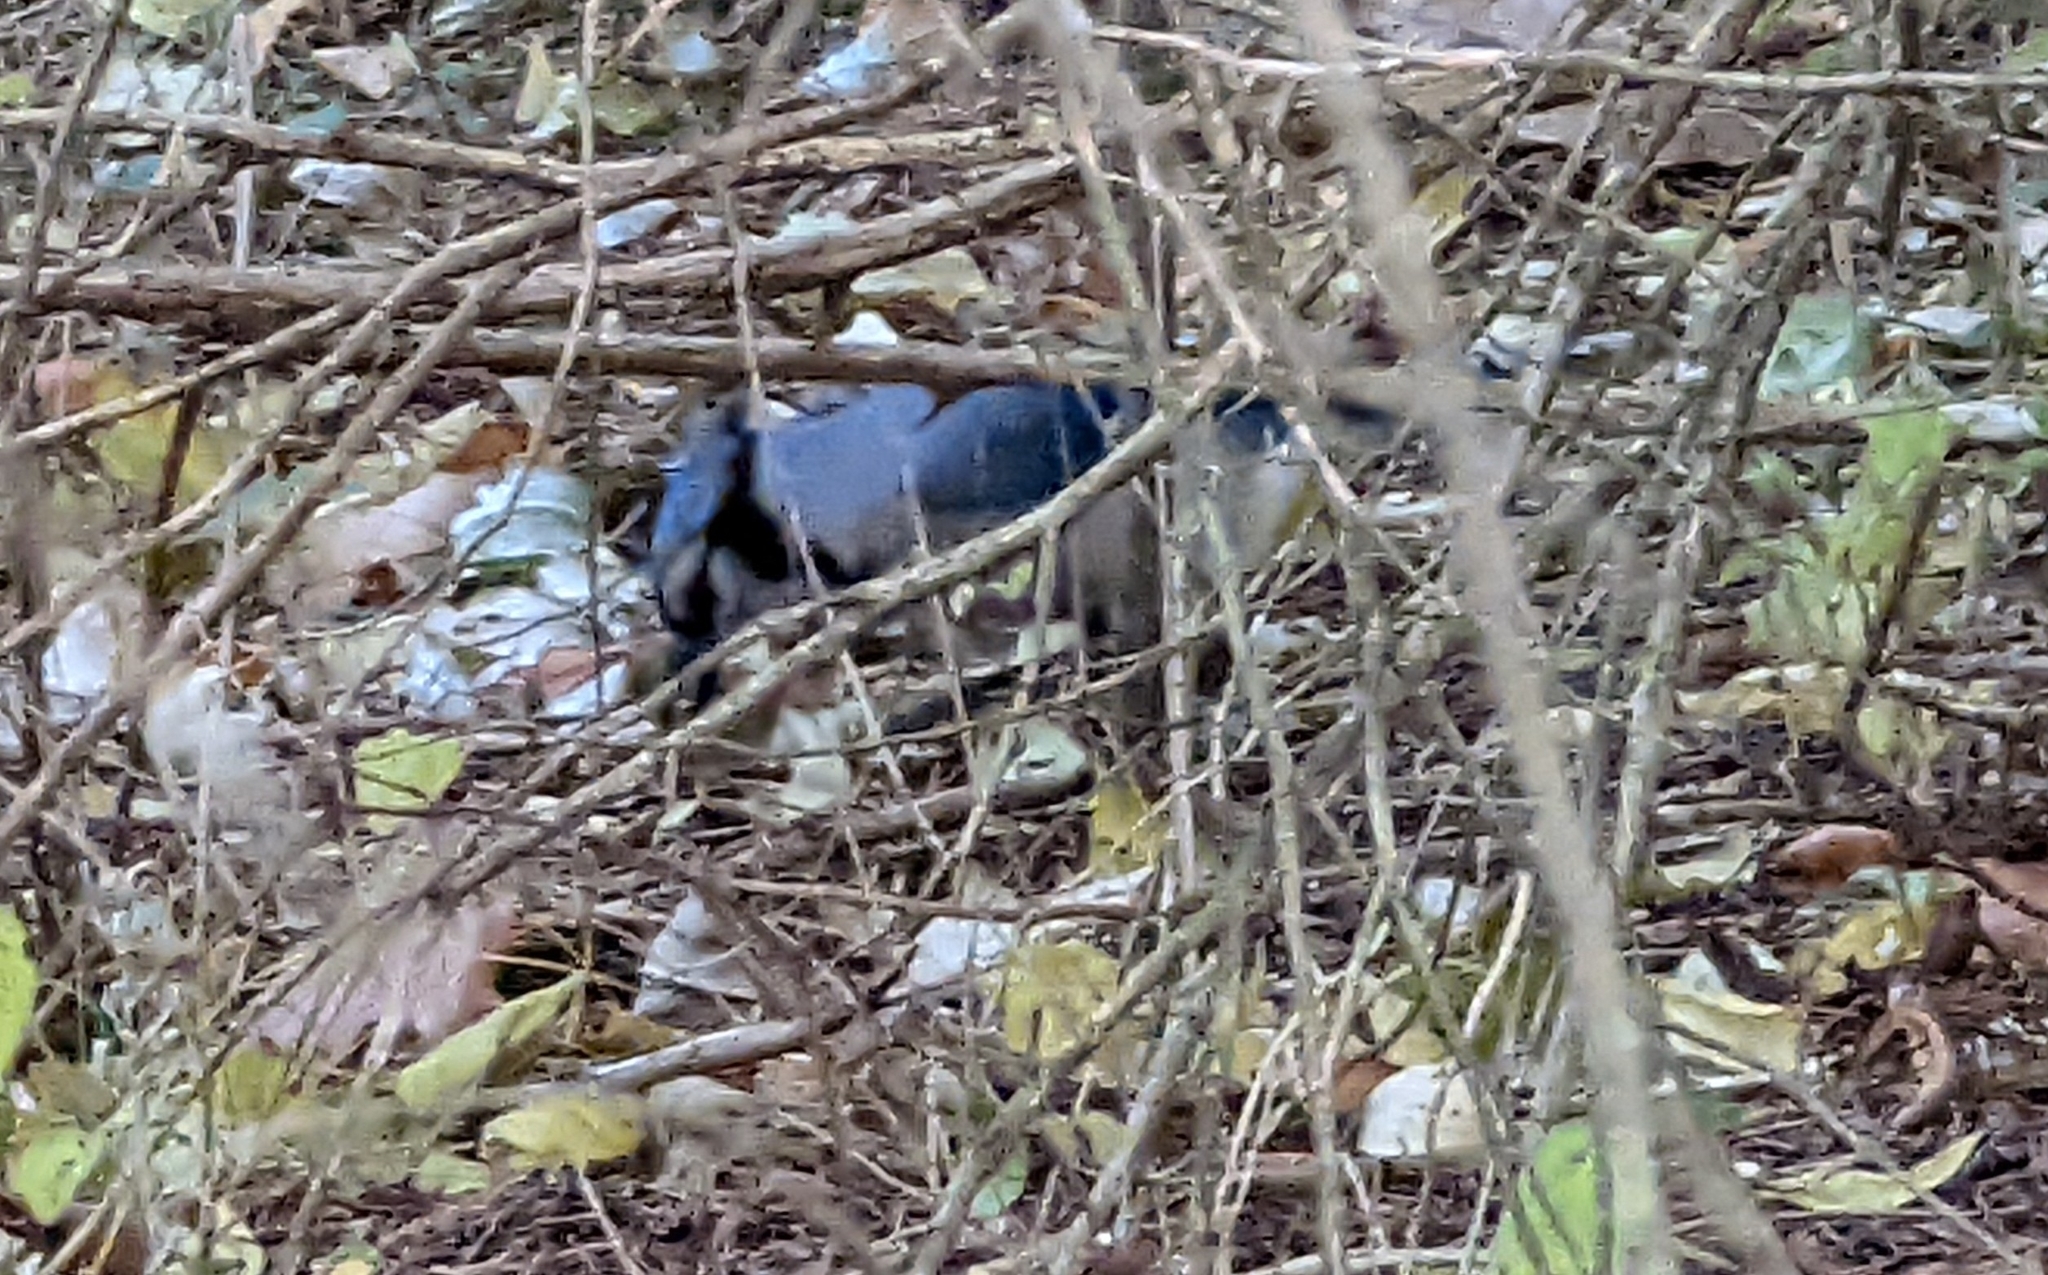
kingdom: Animalia
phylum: Chordata
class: Aves
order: Passeriformes
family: Corvidae
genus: Cyanocitta
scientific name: Cyanocitta cristata
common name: Blue jay
